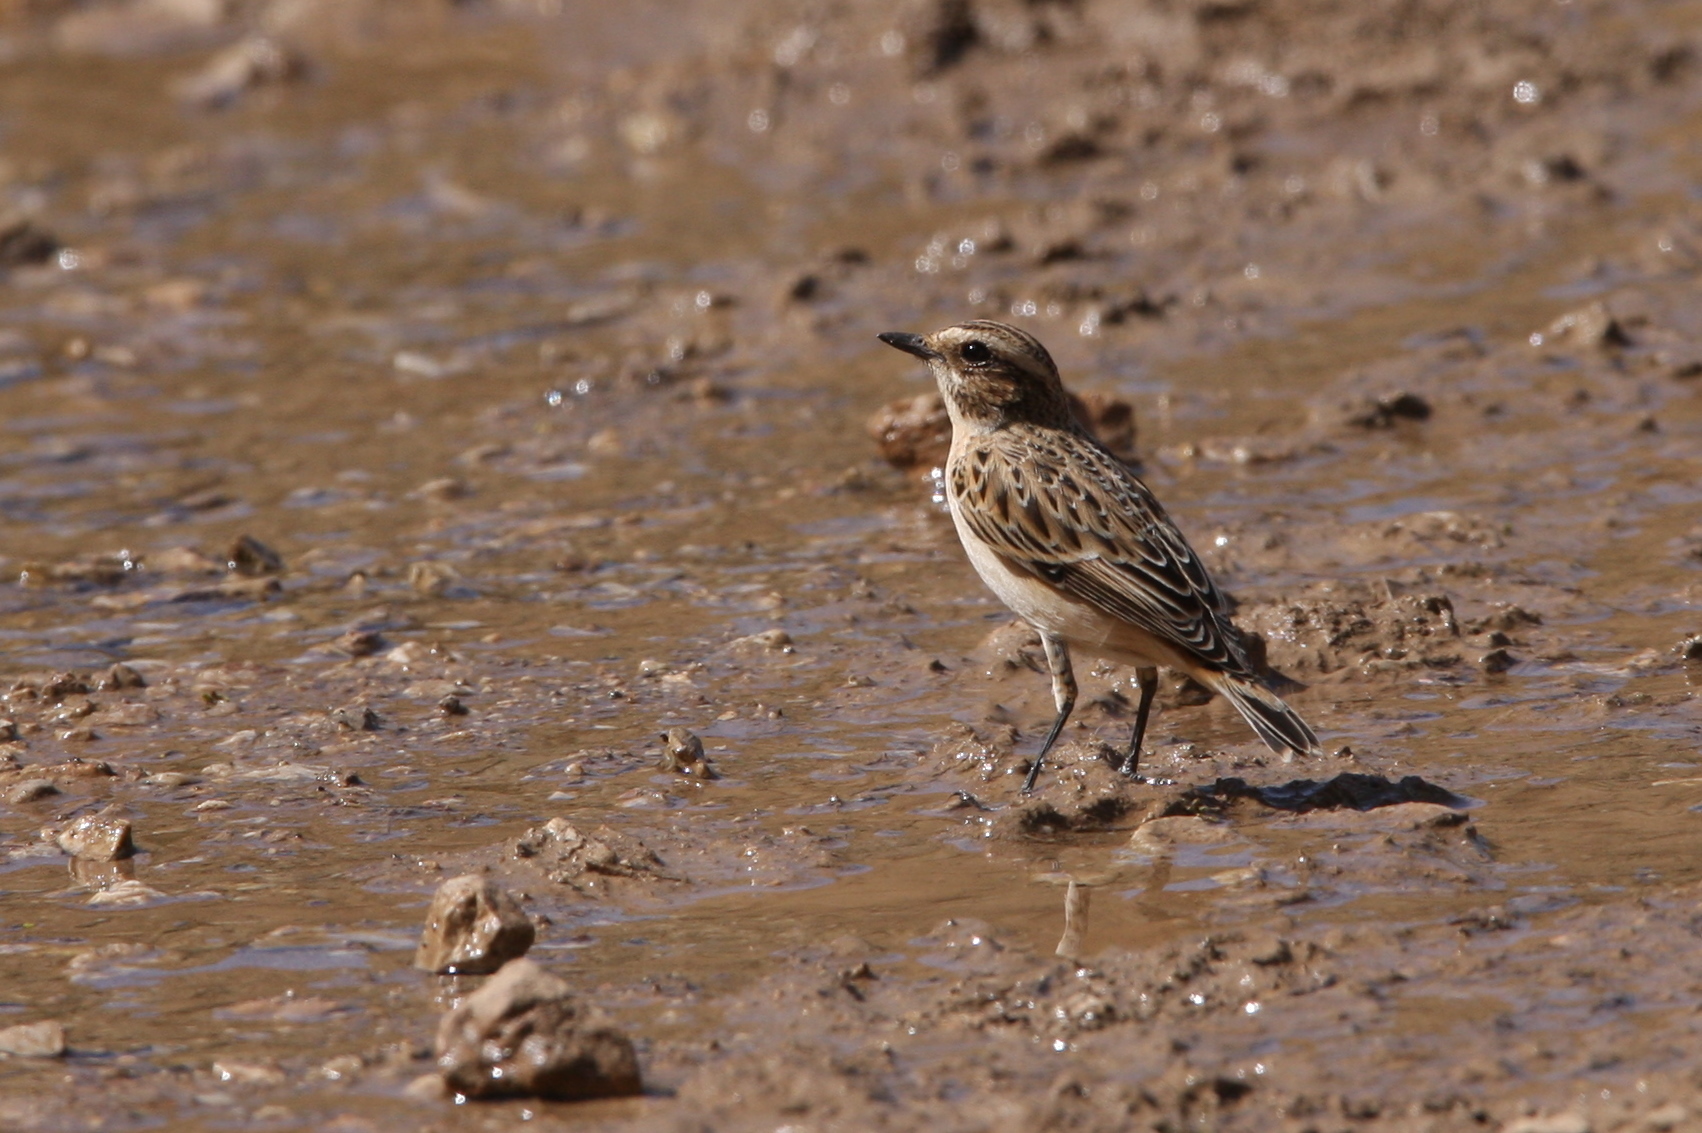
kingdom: Animalia
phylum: Chordata
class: Aves
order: Passeriformes
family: Muscicapidae
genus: Saxicola
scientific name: Saxicola rubetra
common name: Whinchat
